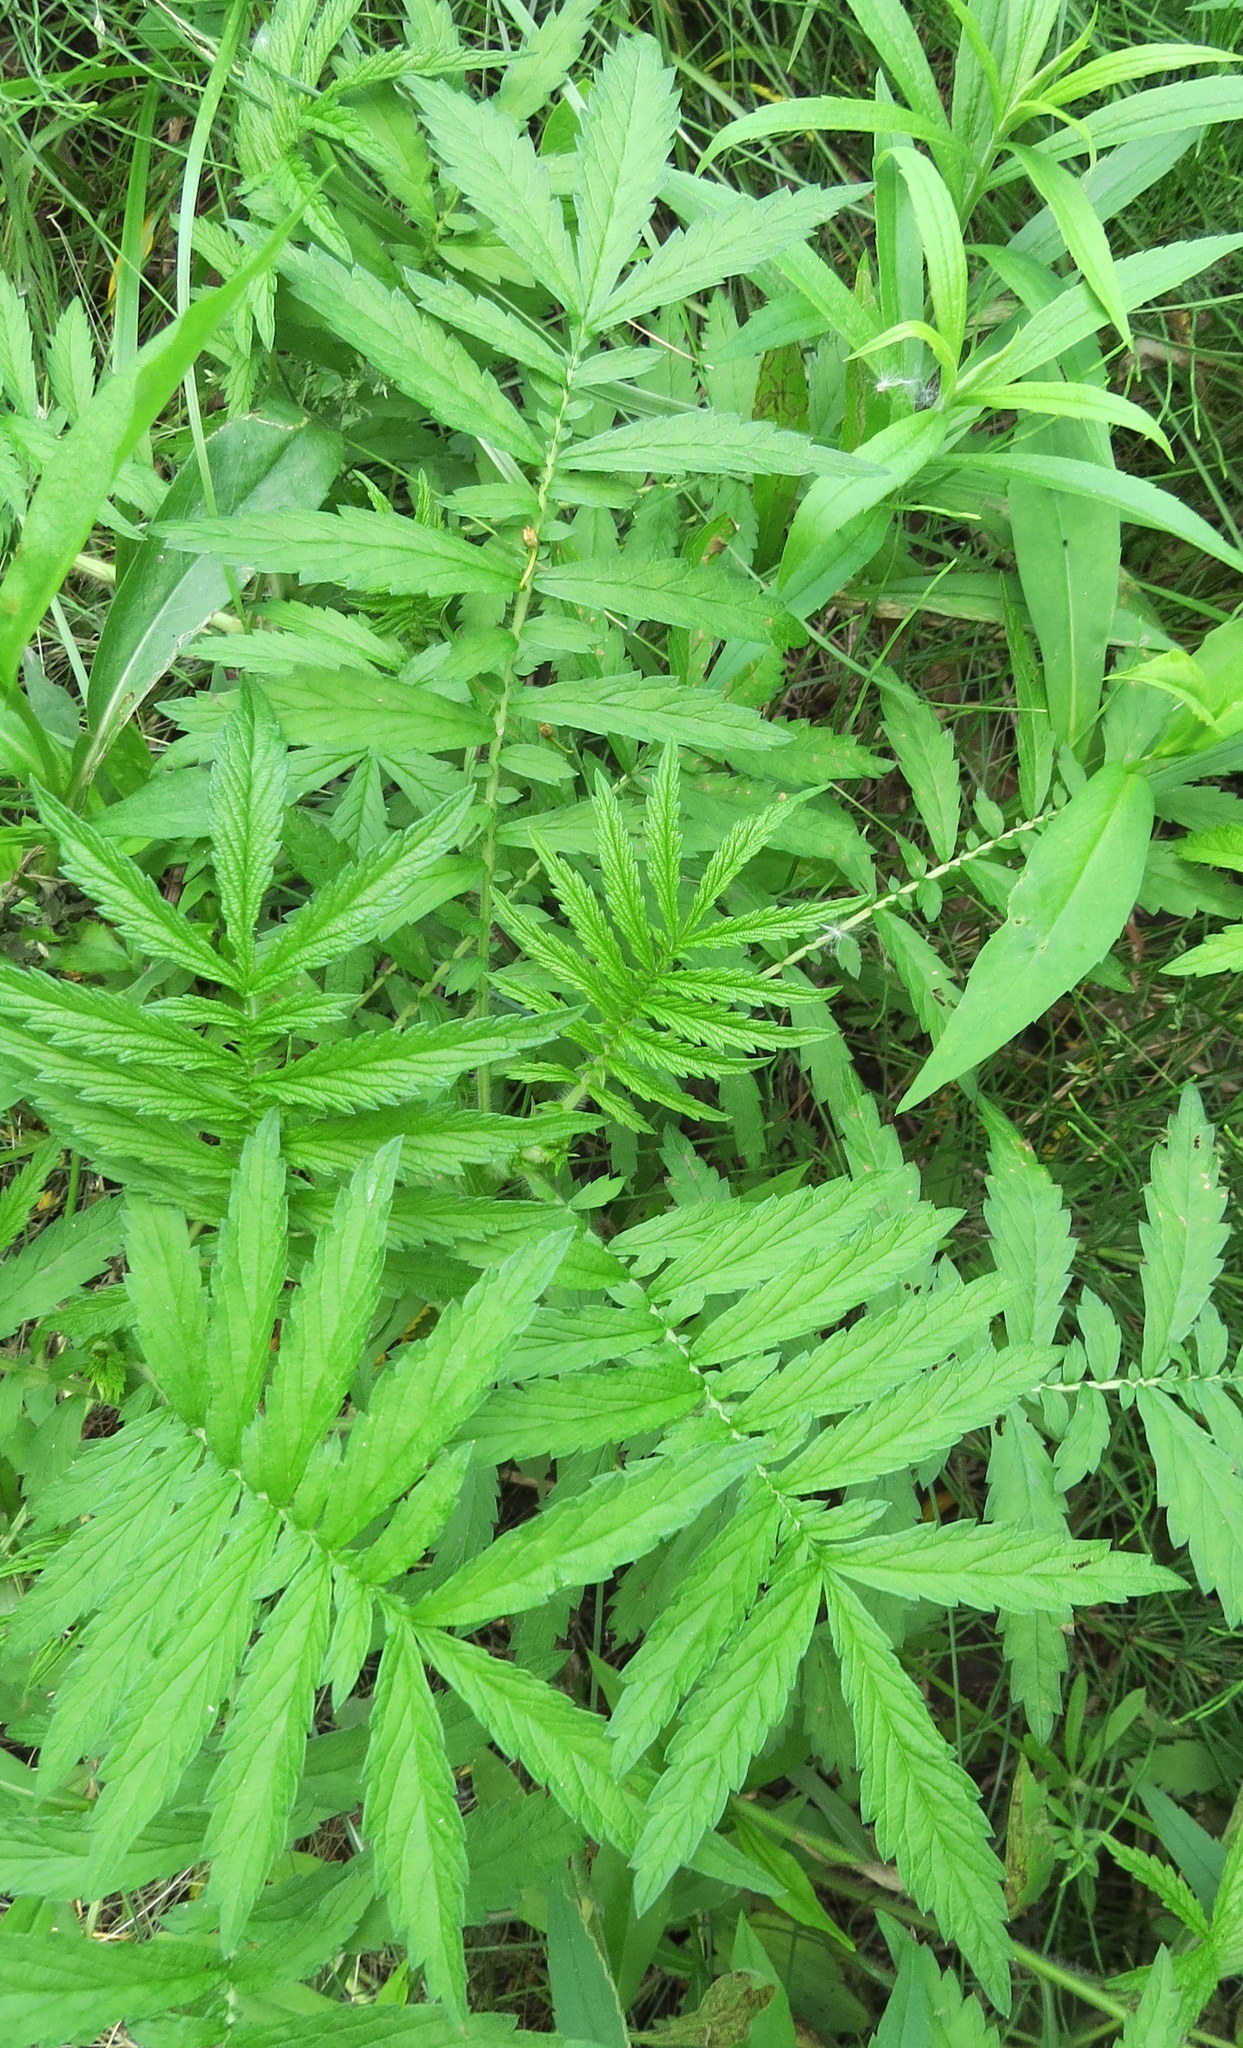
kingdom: Plantae
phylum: Tracheophyta
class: Magnoliopsida
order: Rosales
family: Rosaceae
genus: Agrimonia
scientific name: Agrimonia parviflora
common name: Harvest-lice
